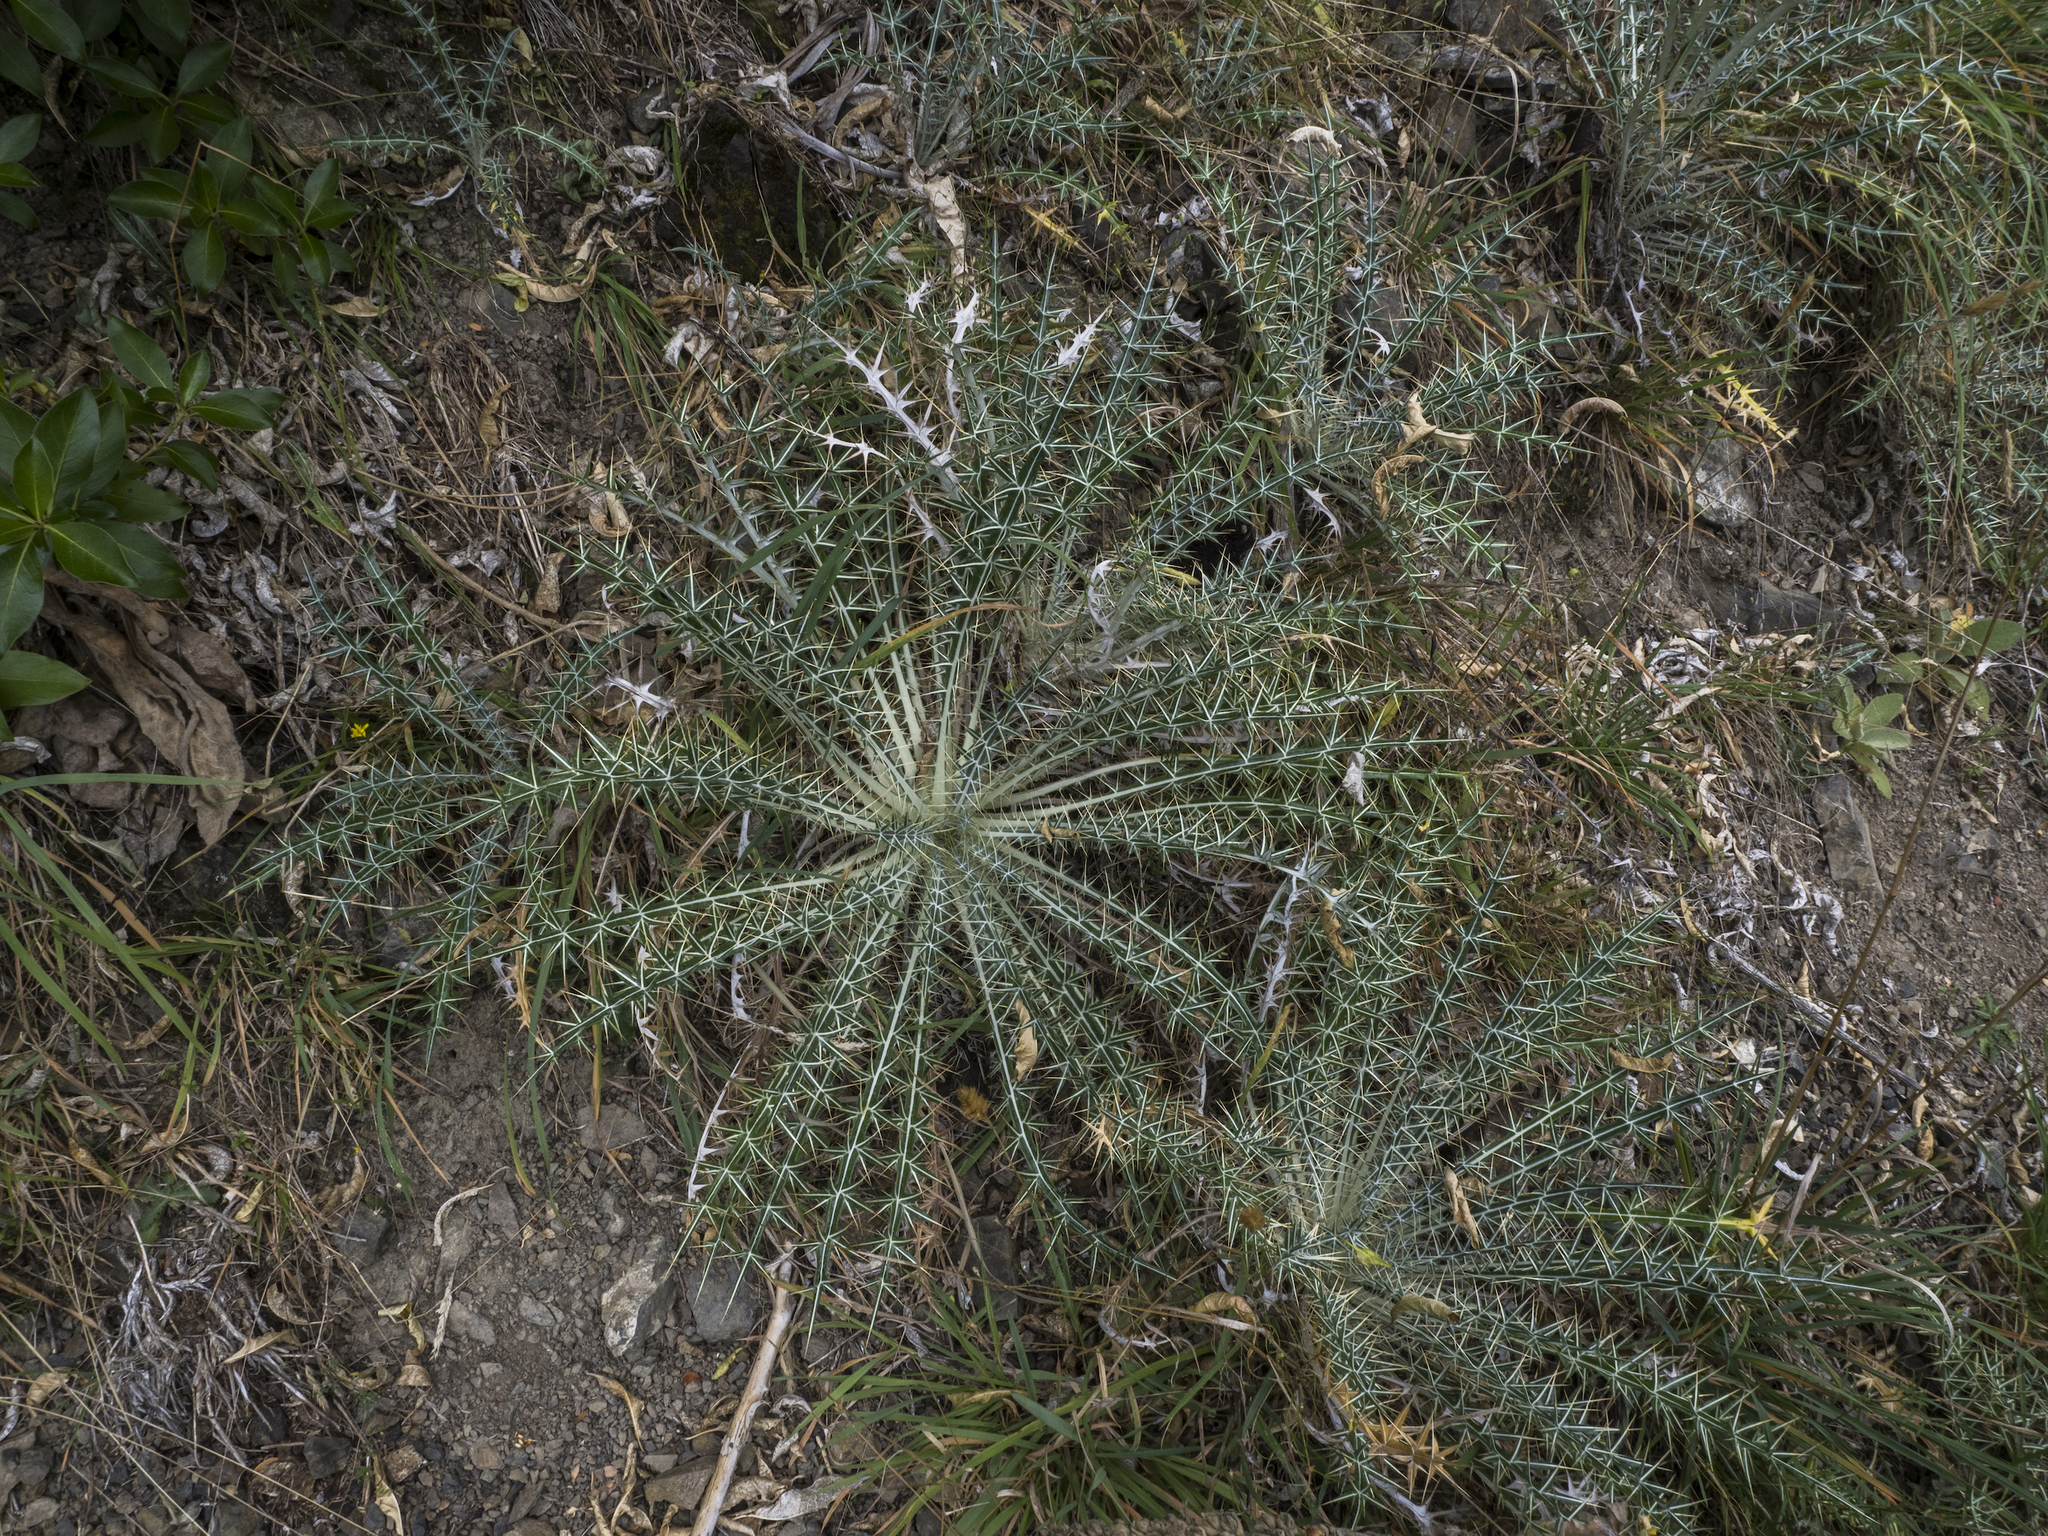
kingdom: Plantae
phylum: Tracheophyta
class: Magnoliopsida
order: Asterales
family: Asteraceae
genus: Ptilostemon
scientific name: Ptilostemon afer
